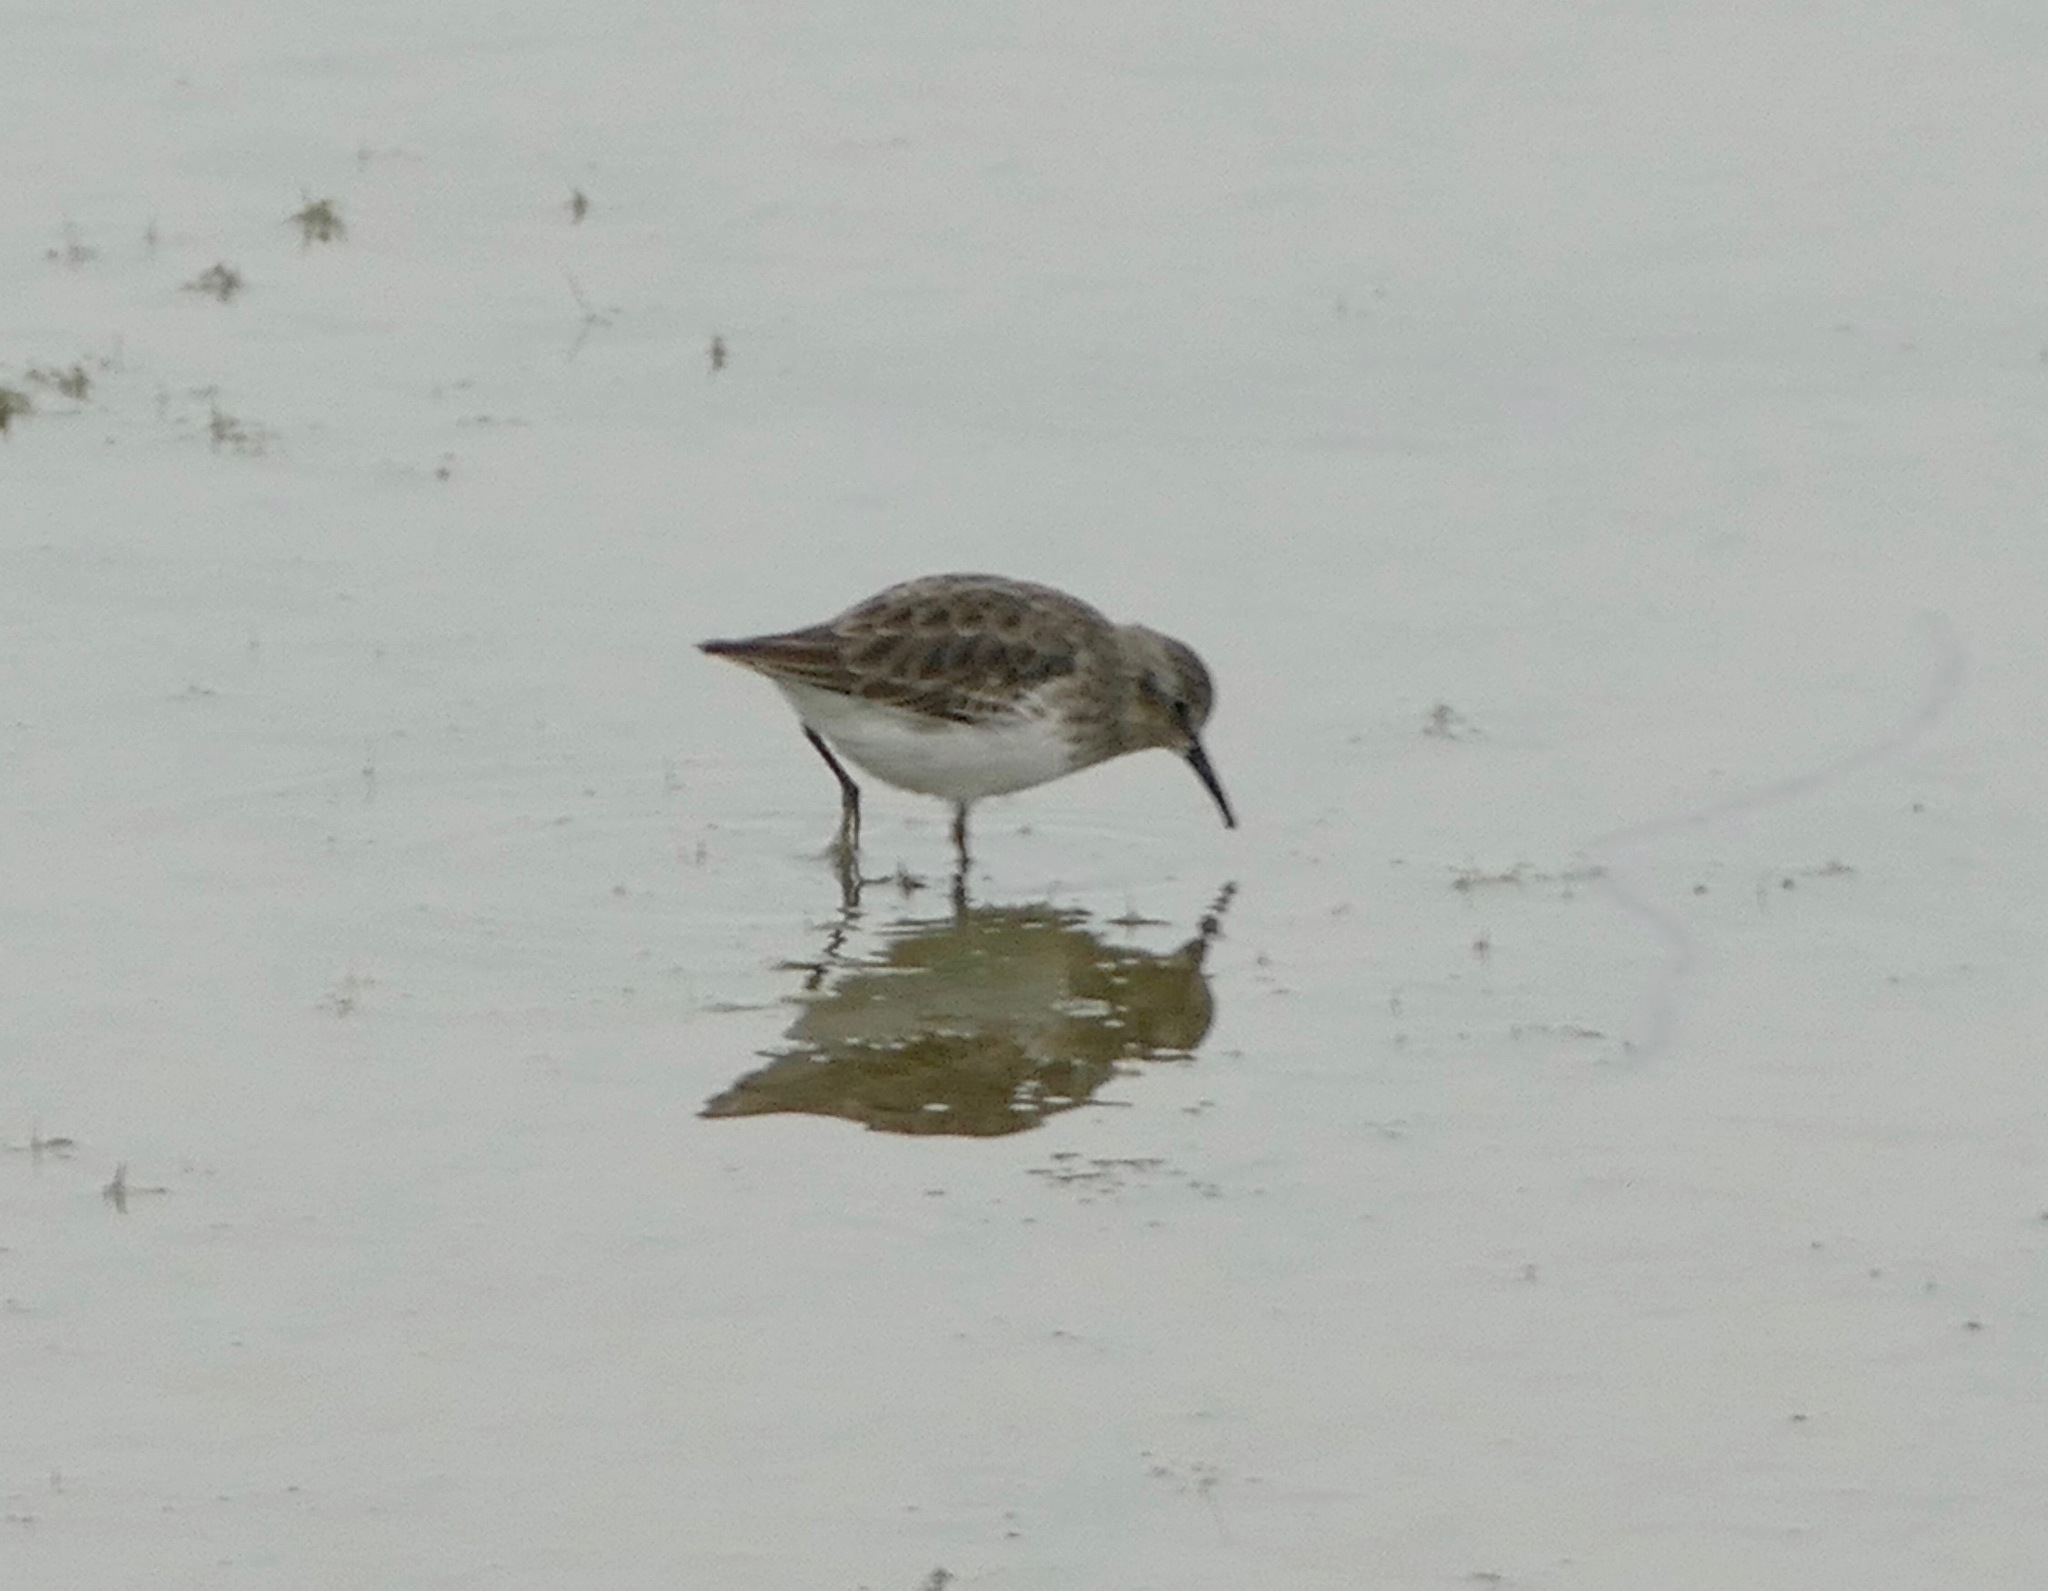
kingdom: Animalia
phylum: Chordata
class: Aves
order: Charadriiformes
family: Scolopacidae
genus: Calidris
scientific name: Calidris minutilla
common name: Least sandpiper
